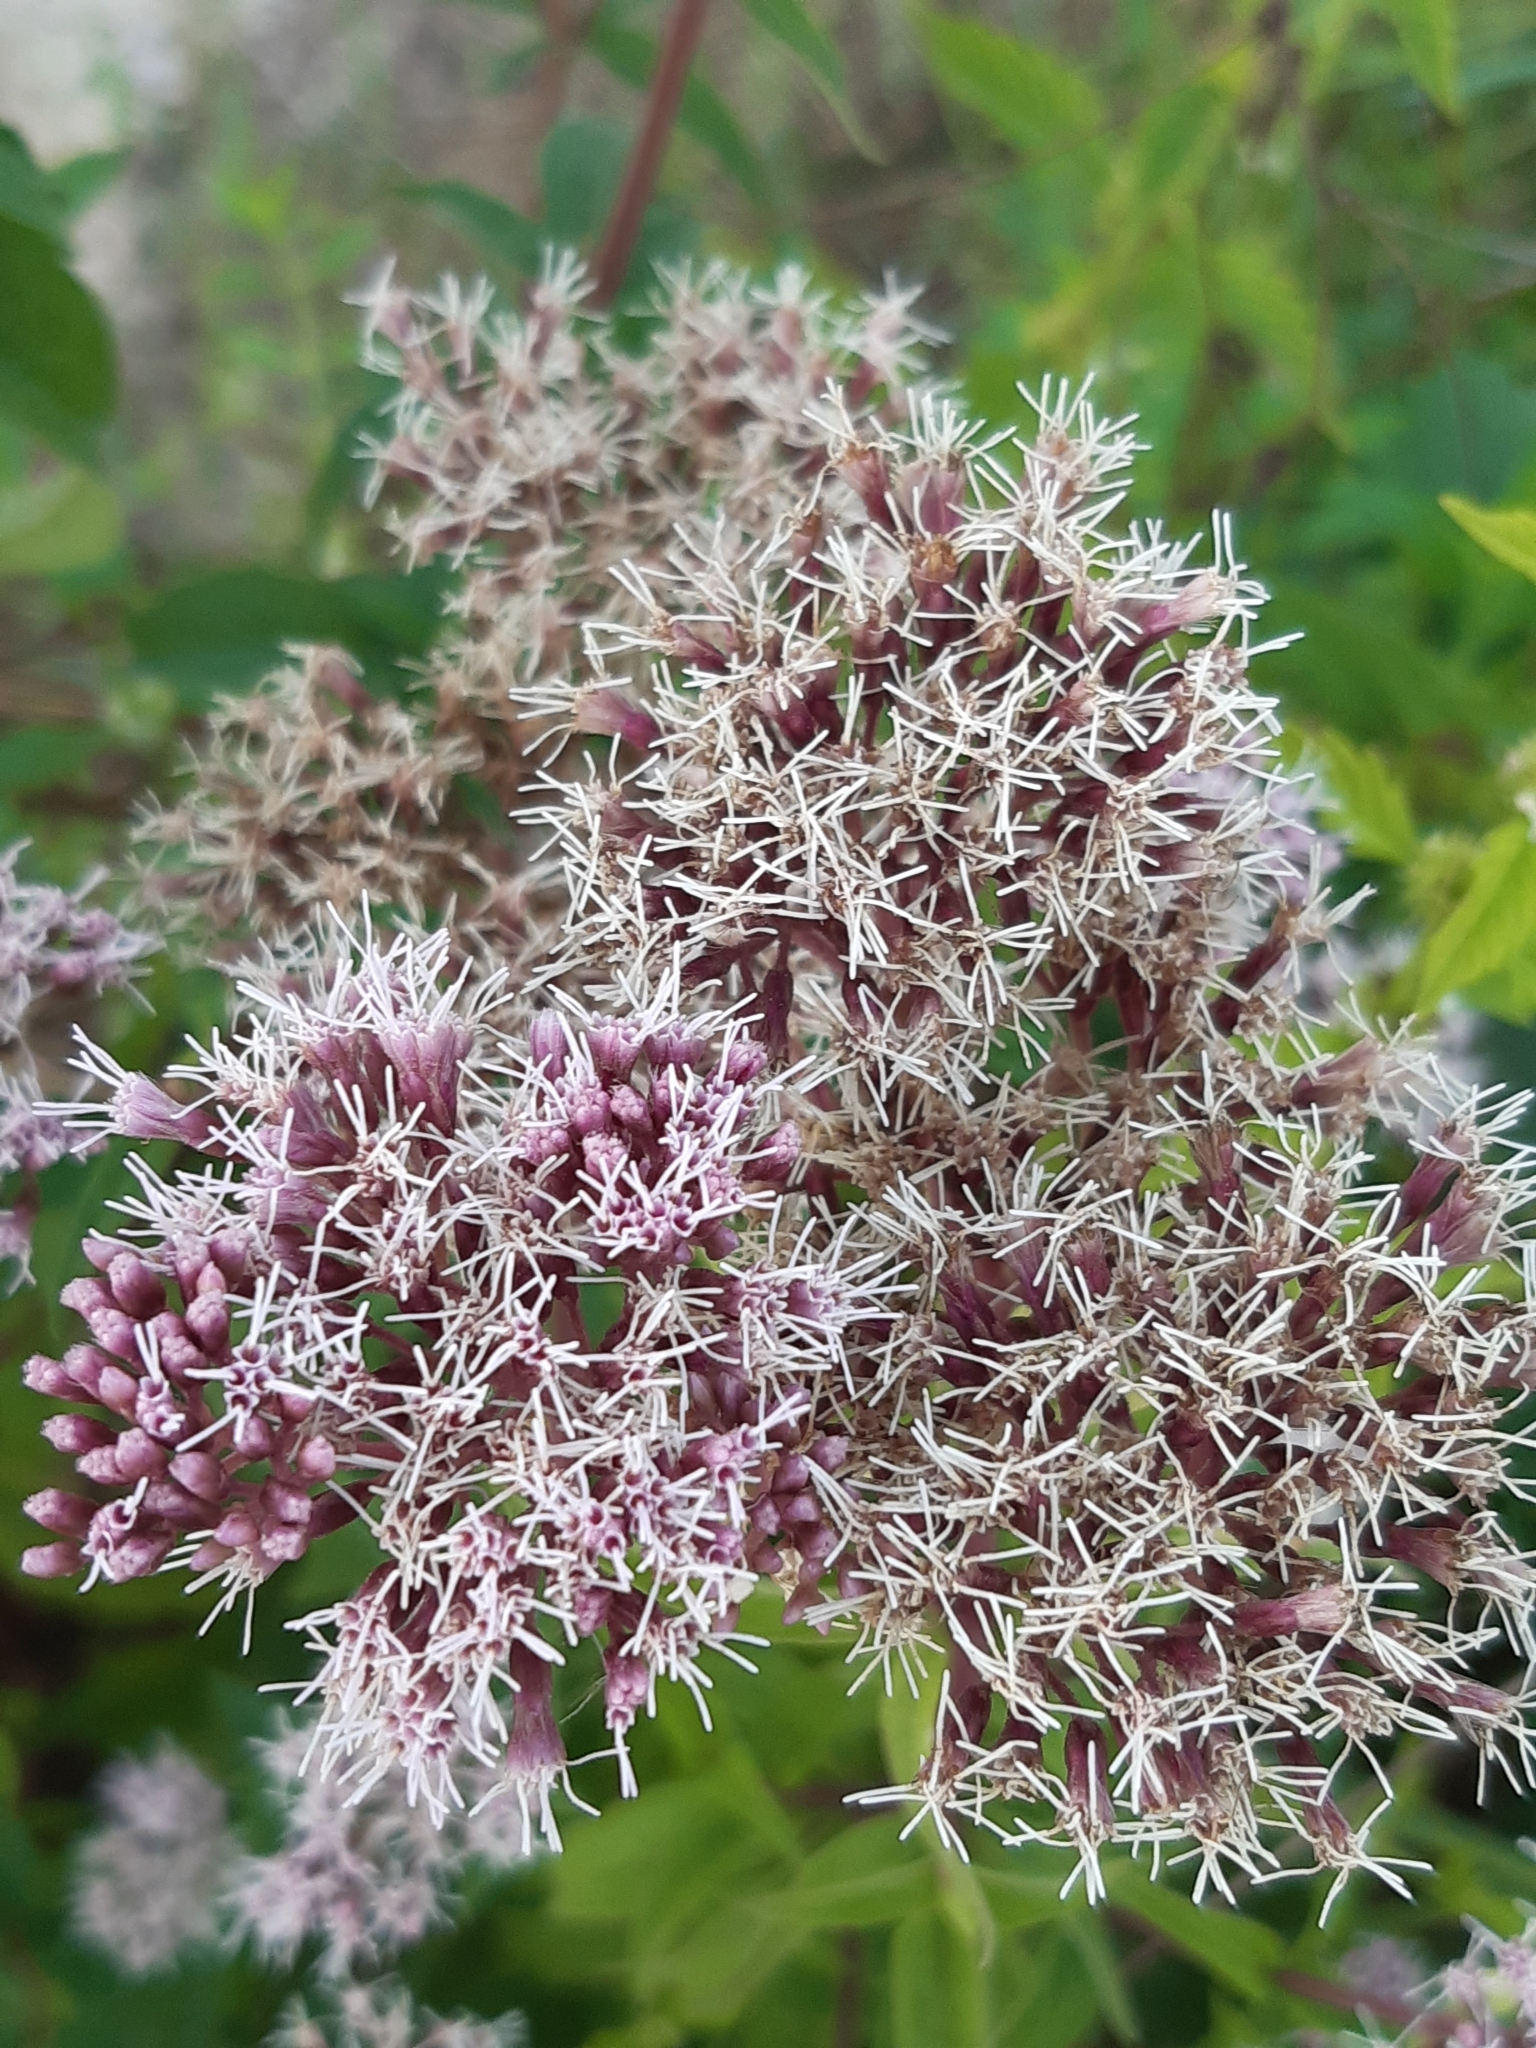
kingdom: Plantae
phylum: Tracheophyta
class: Magnoliopsida
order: Asterales
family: Asteraceae
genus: Eupatorium
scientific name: Eupatorium cannabinum
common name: Hemp-agrimony
